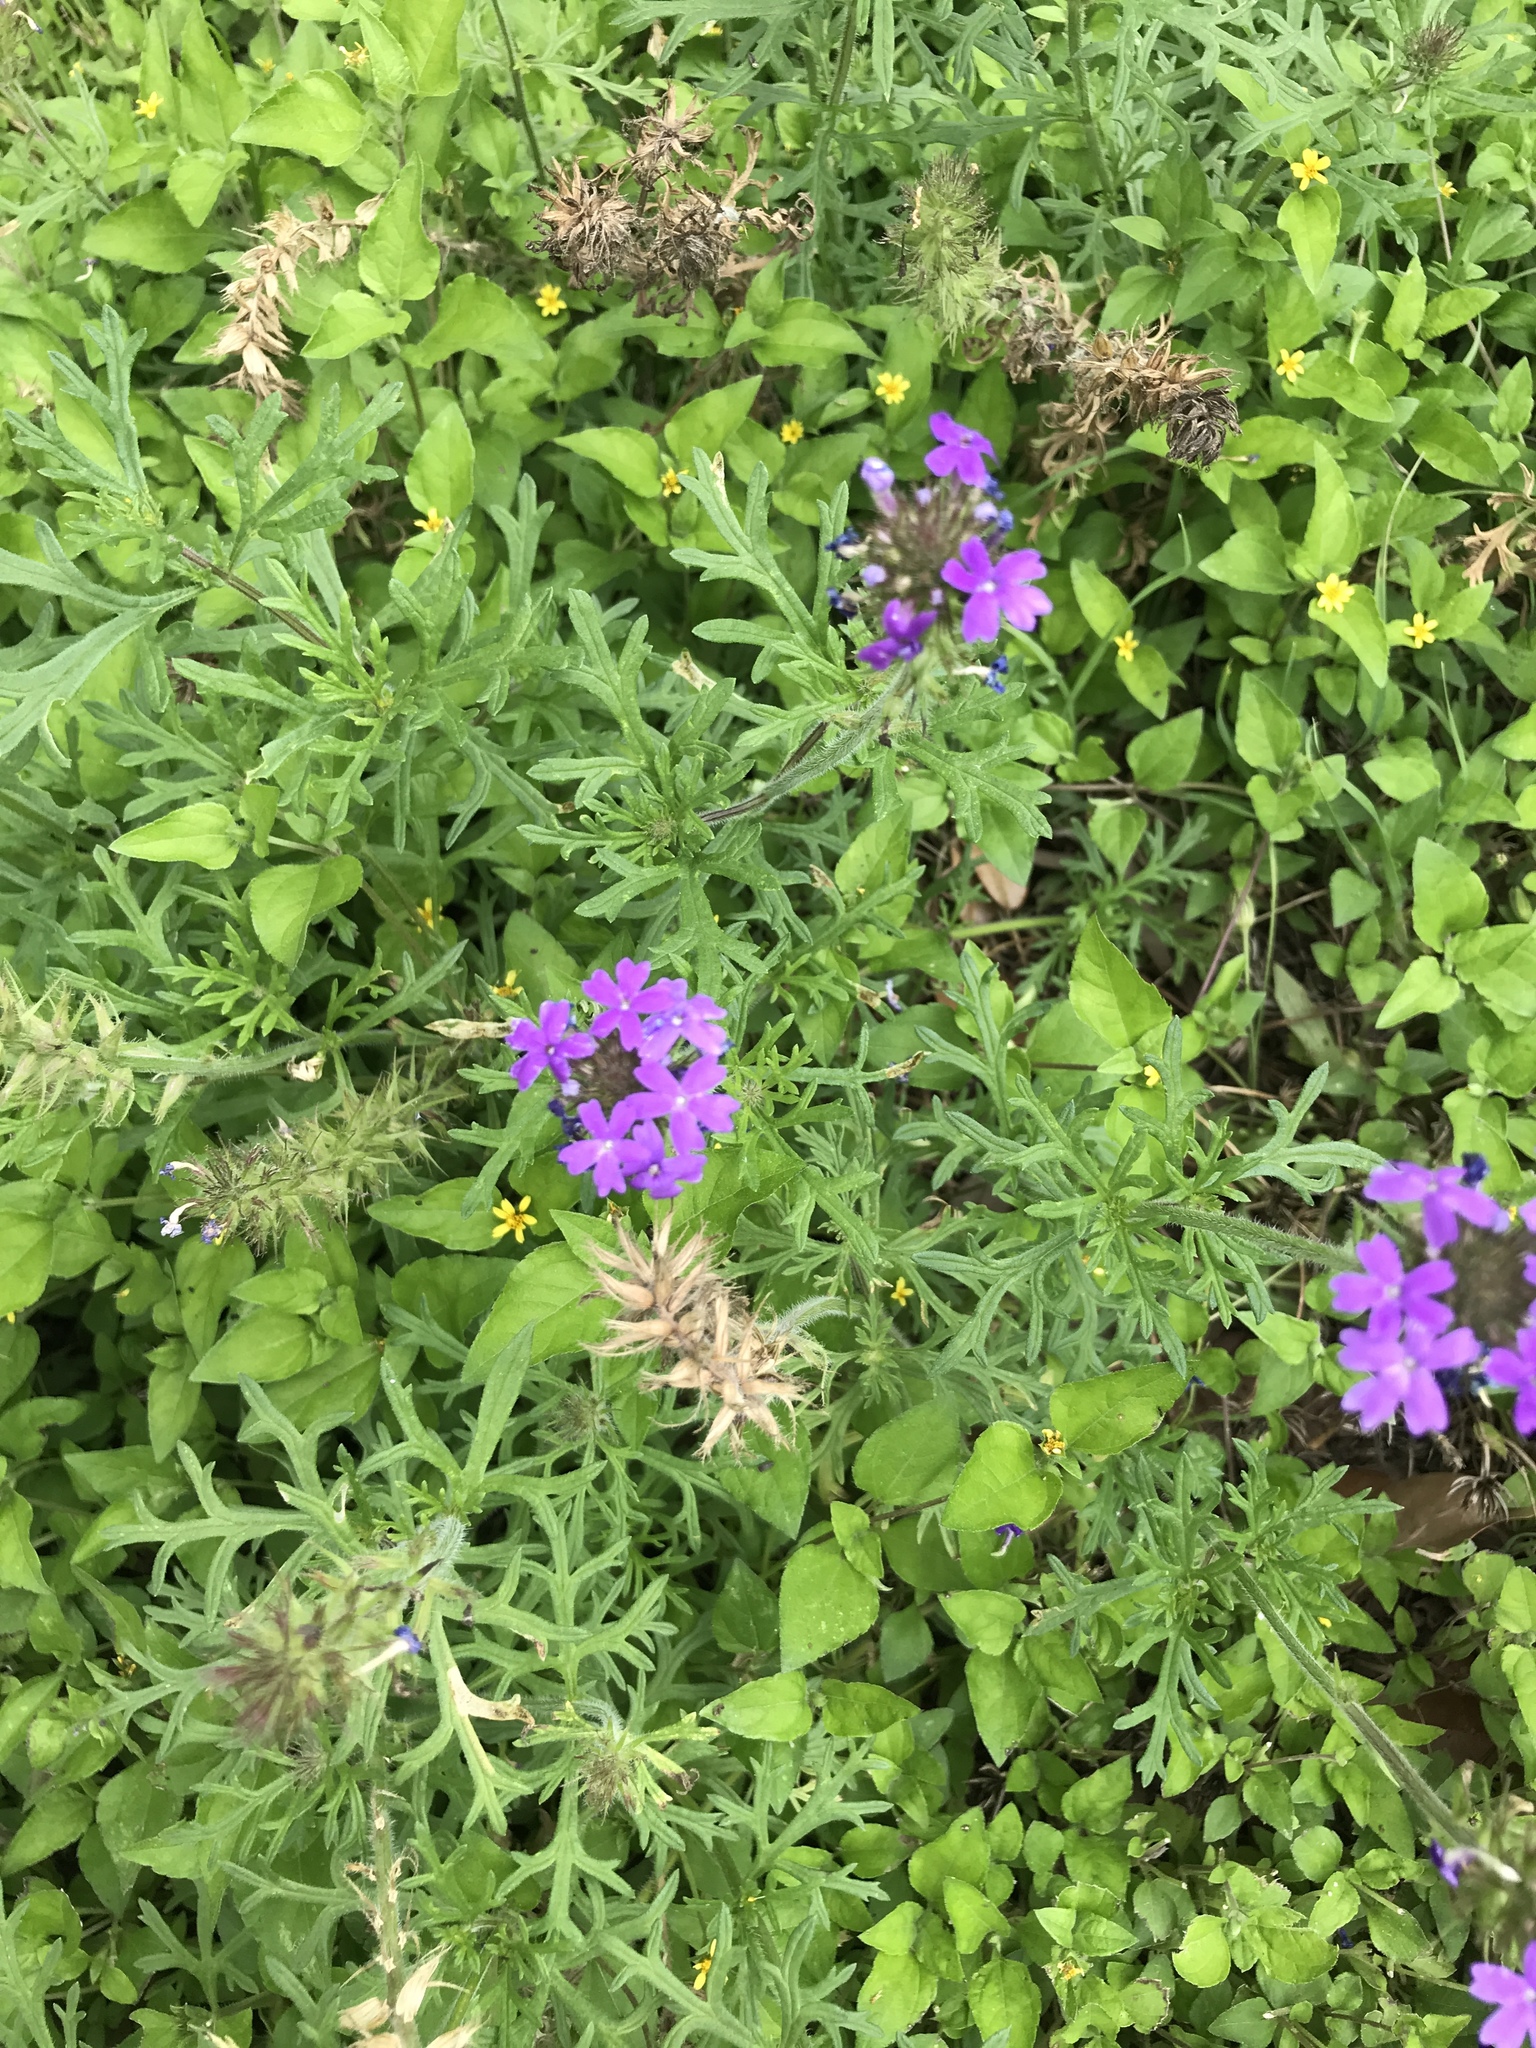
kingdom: Plantae
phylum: Tracheophyta
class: Magnoliopsida
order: Lamiales
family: Verbenaceae
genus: Verbena
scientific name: Verbena bipinnatifida
